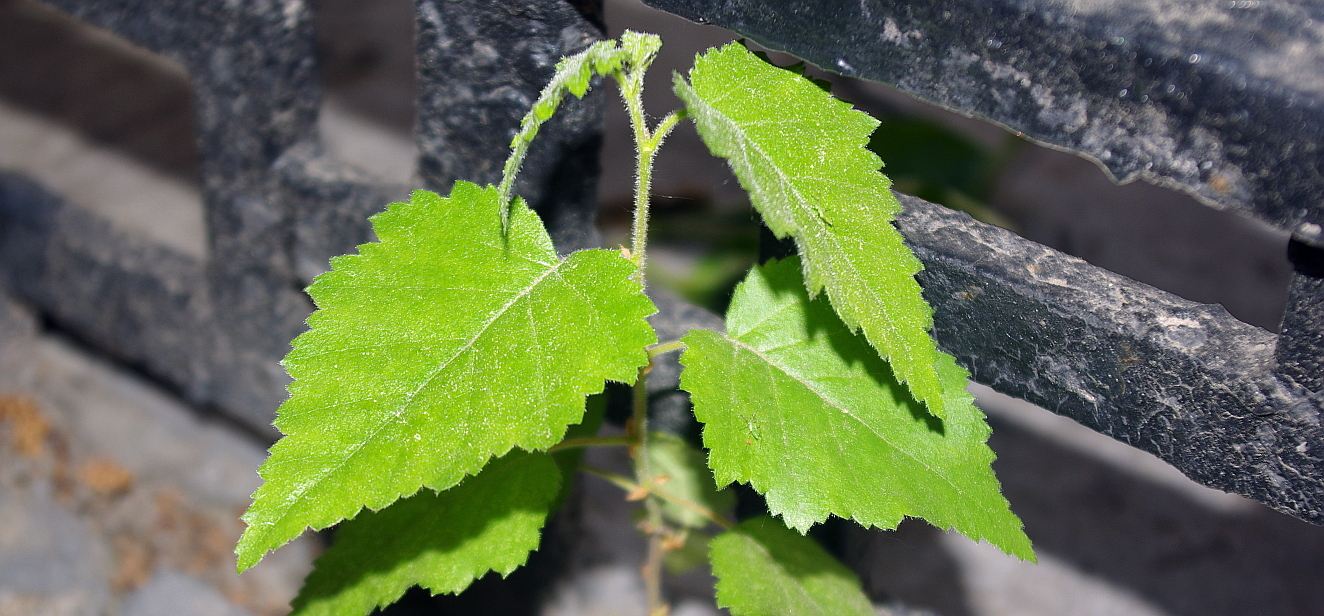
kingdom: Plantae
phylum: Tracheophyta
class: Magnoliopsida
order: Fagales
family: Betulaceae
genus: Betula
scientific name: Betula pubescens
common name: Downy birch
